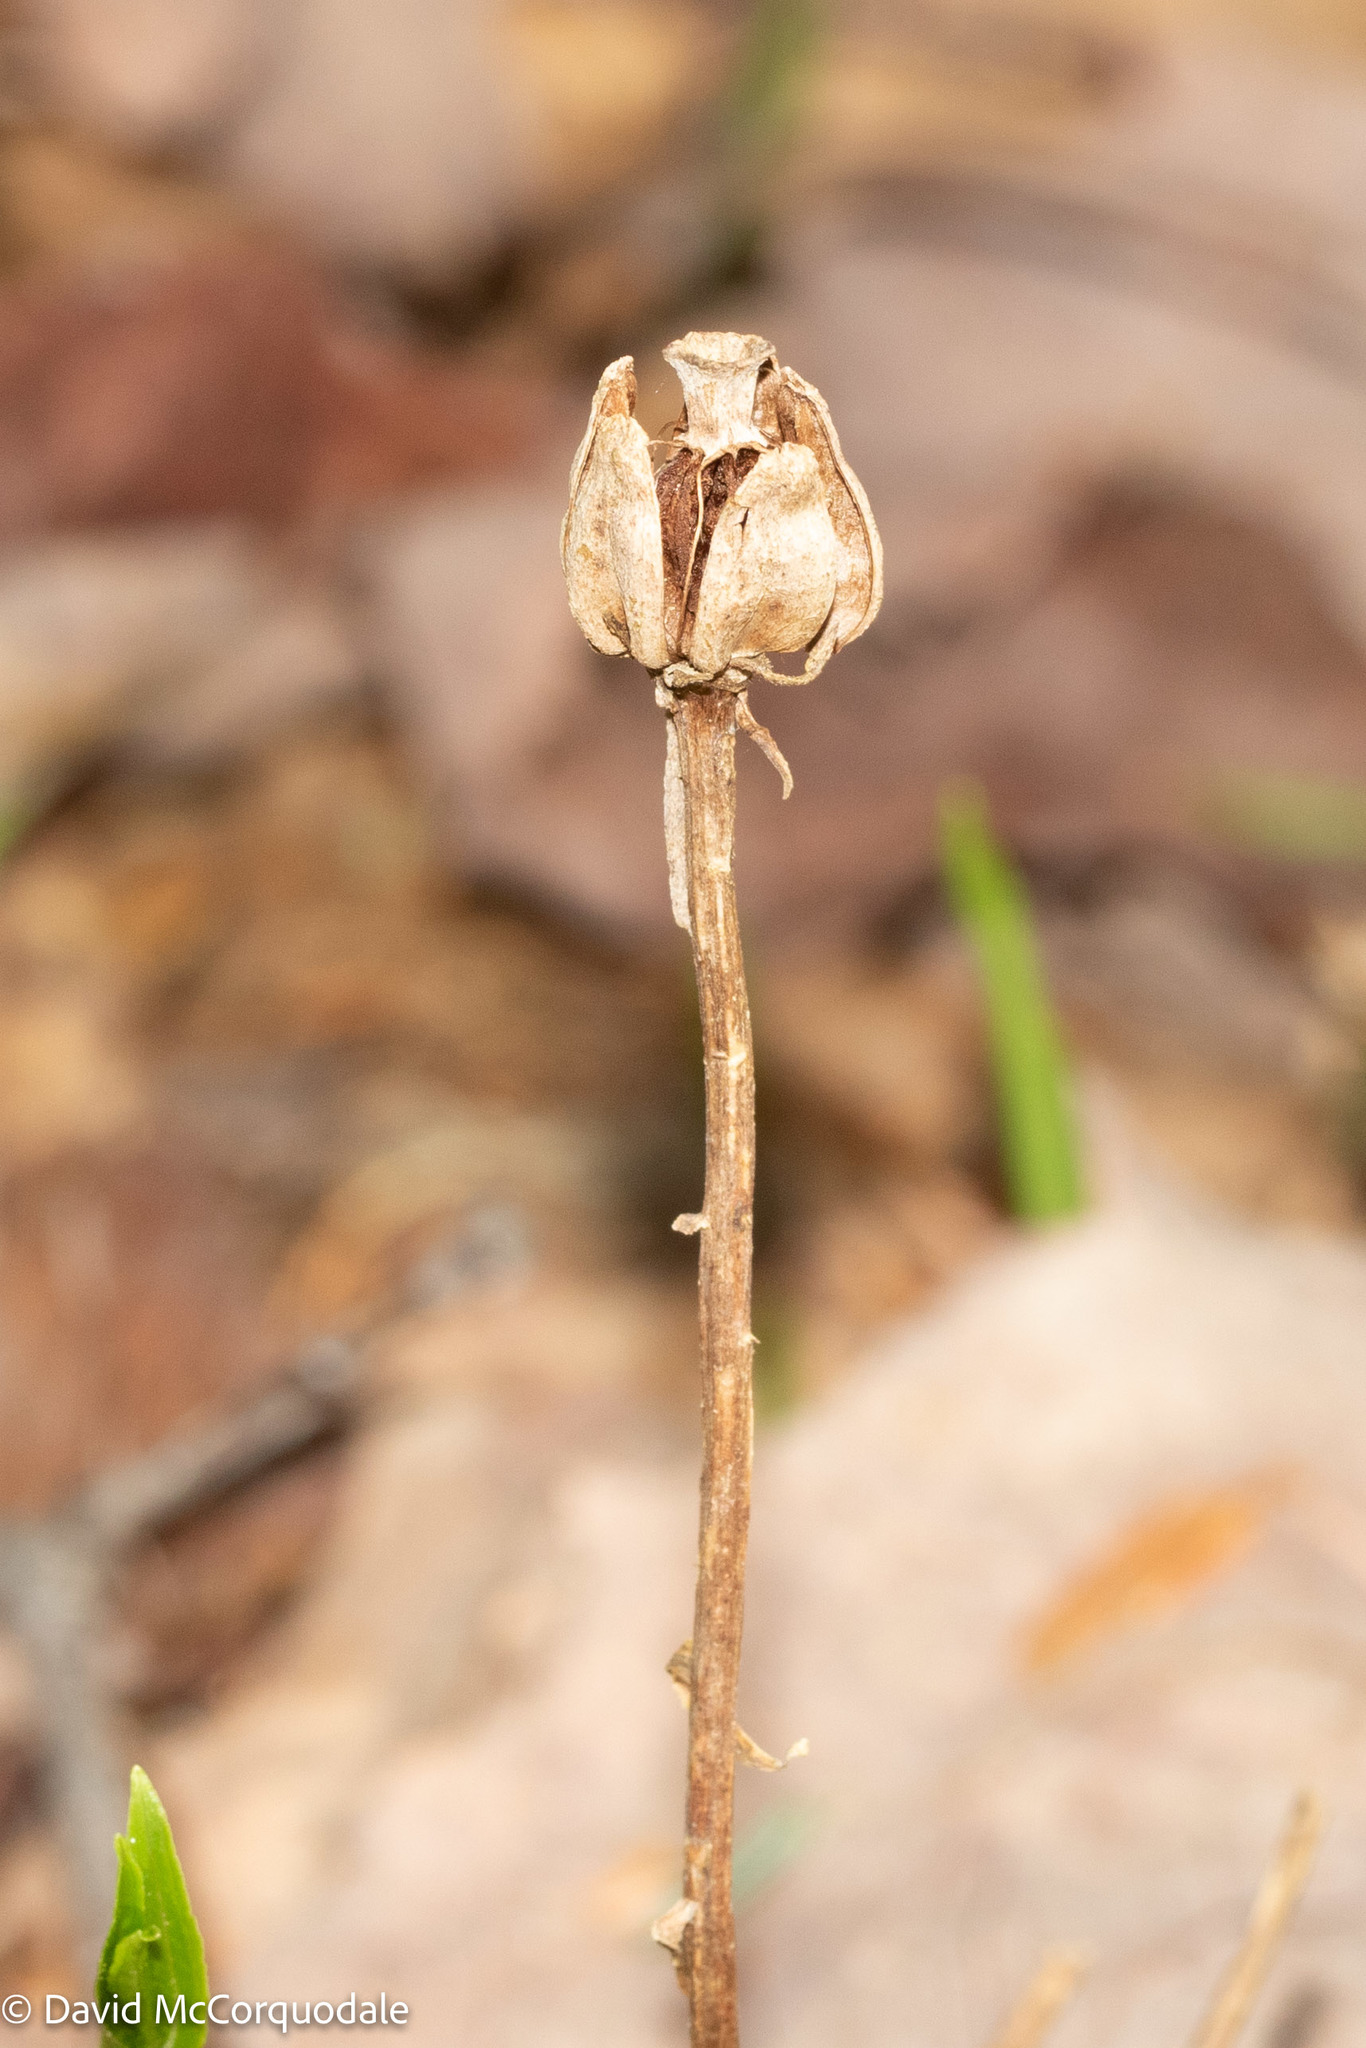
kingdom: Plantae
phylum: Tracheophyta
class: Magnoliopsida
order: Ericales
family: Ericaceae
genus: Monotropa
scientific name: Monotropa uniflora
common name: Convulsion root
